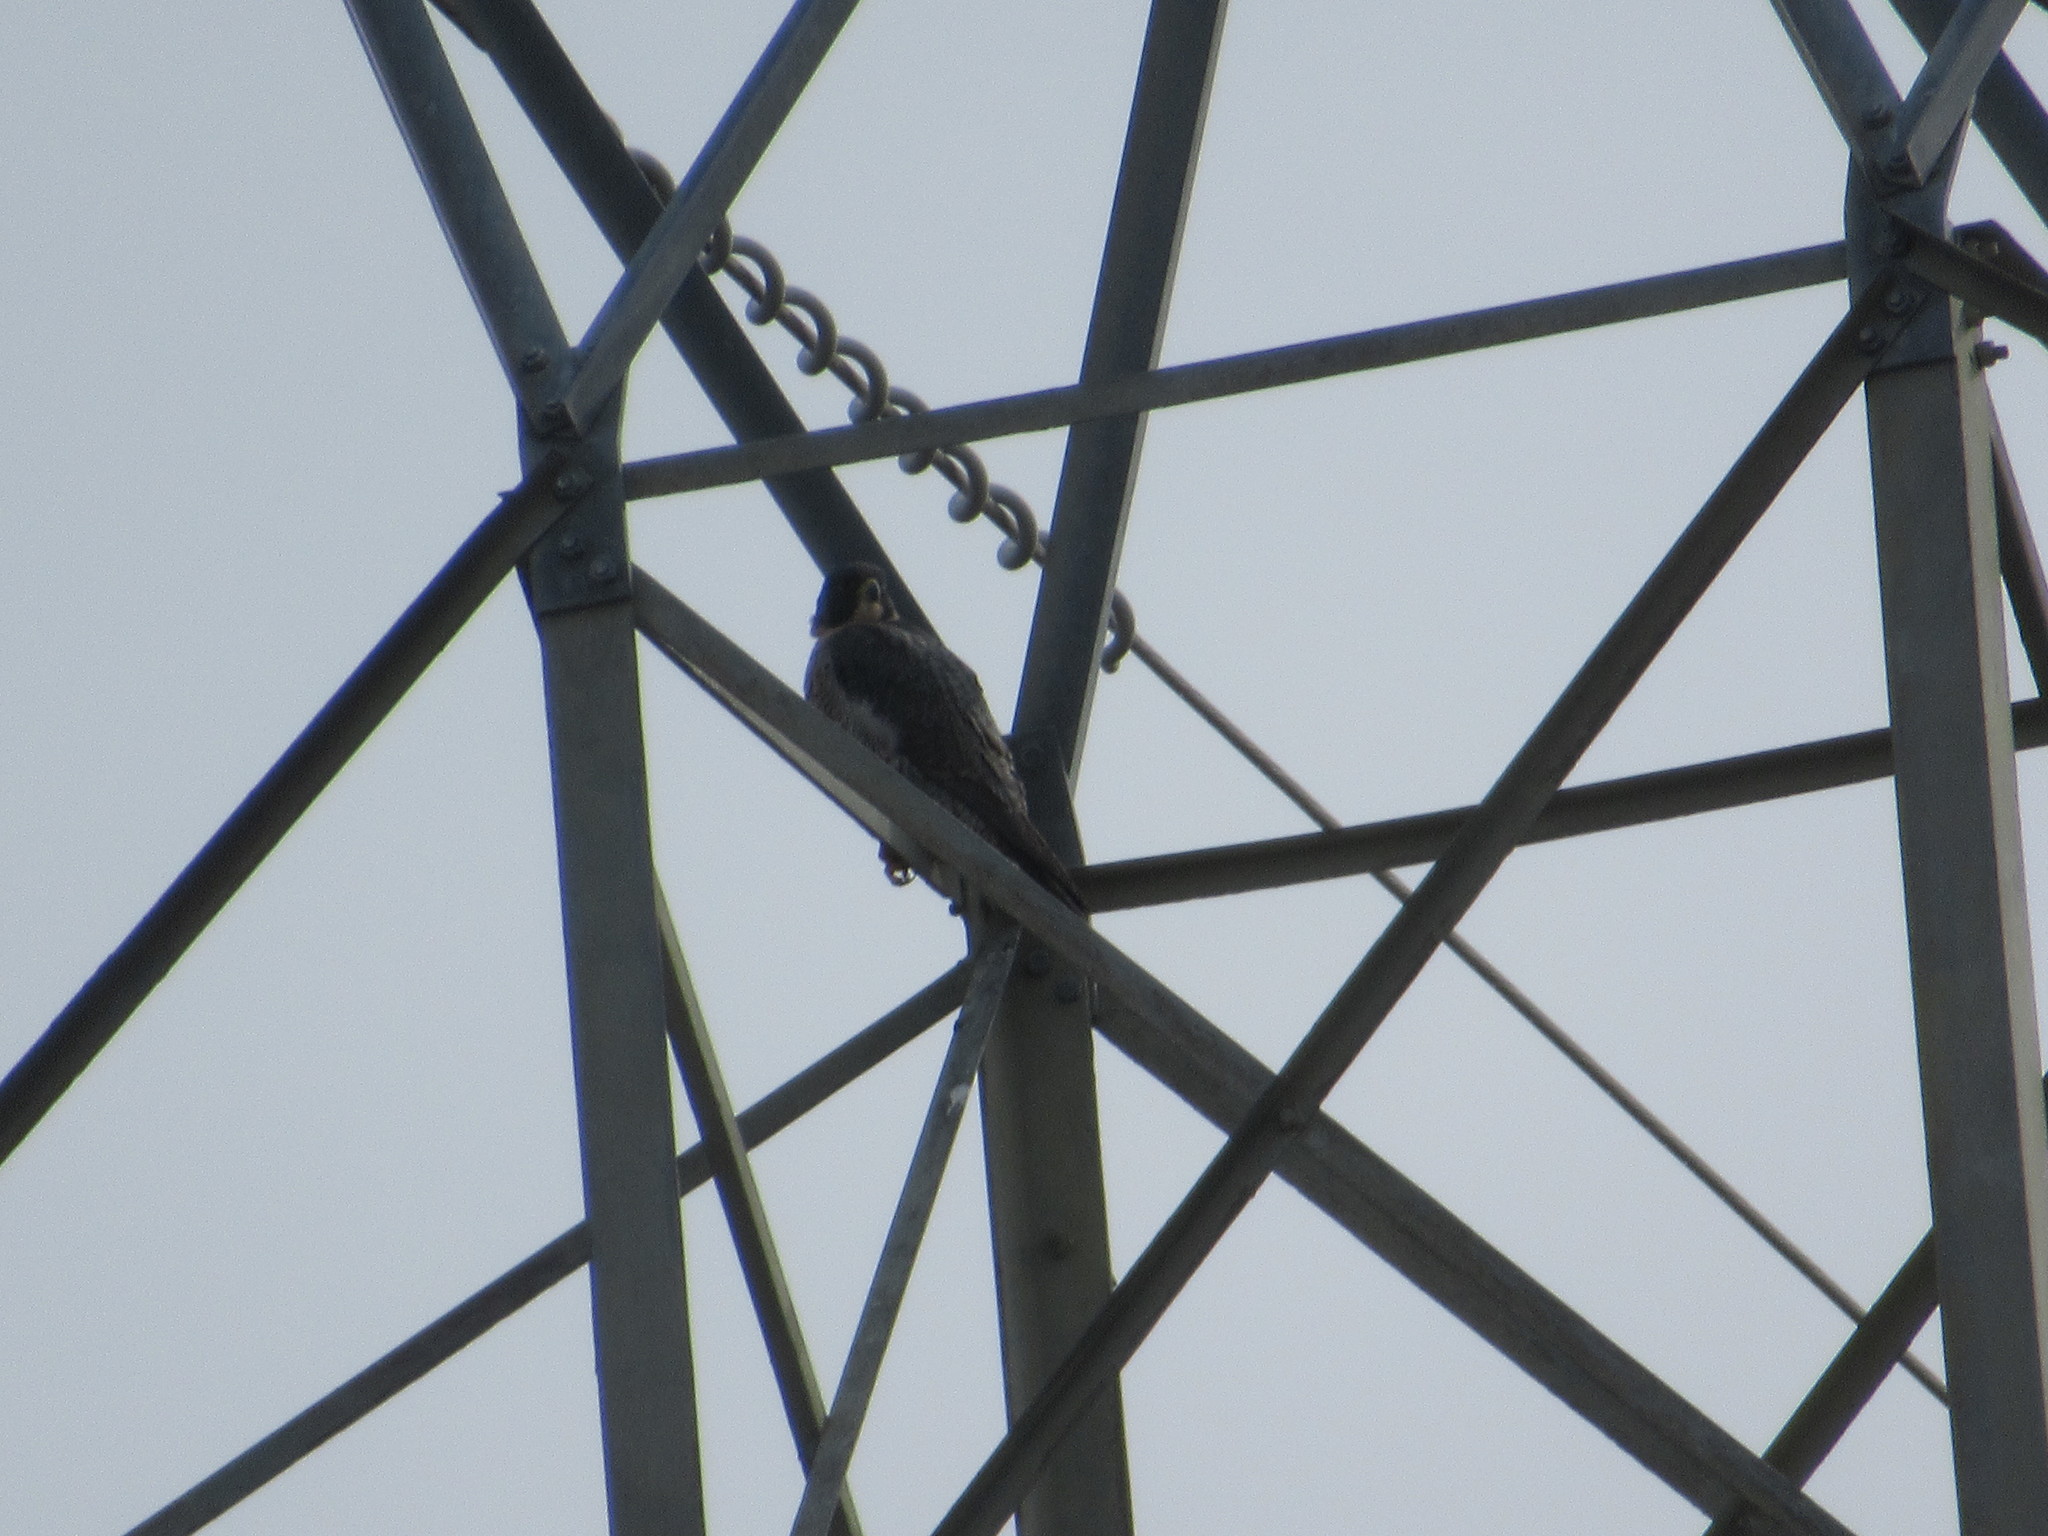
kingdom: Animalia
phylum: Chordata
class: Aves
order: Falconiformes
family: Falconidae
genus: Falco
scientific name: Falco peregrinus
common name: Peregrine falcon
